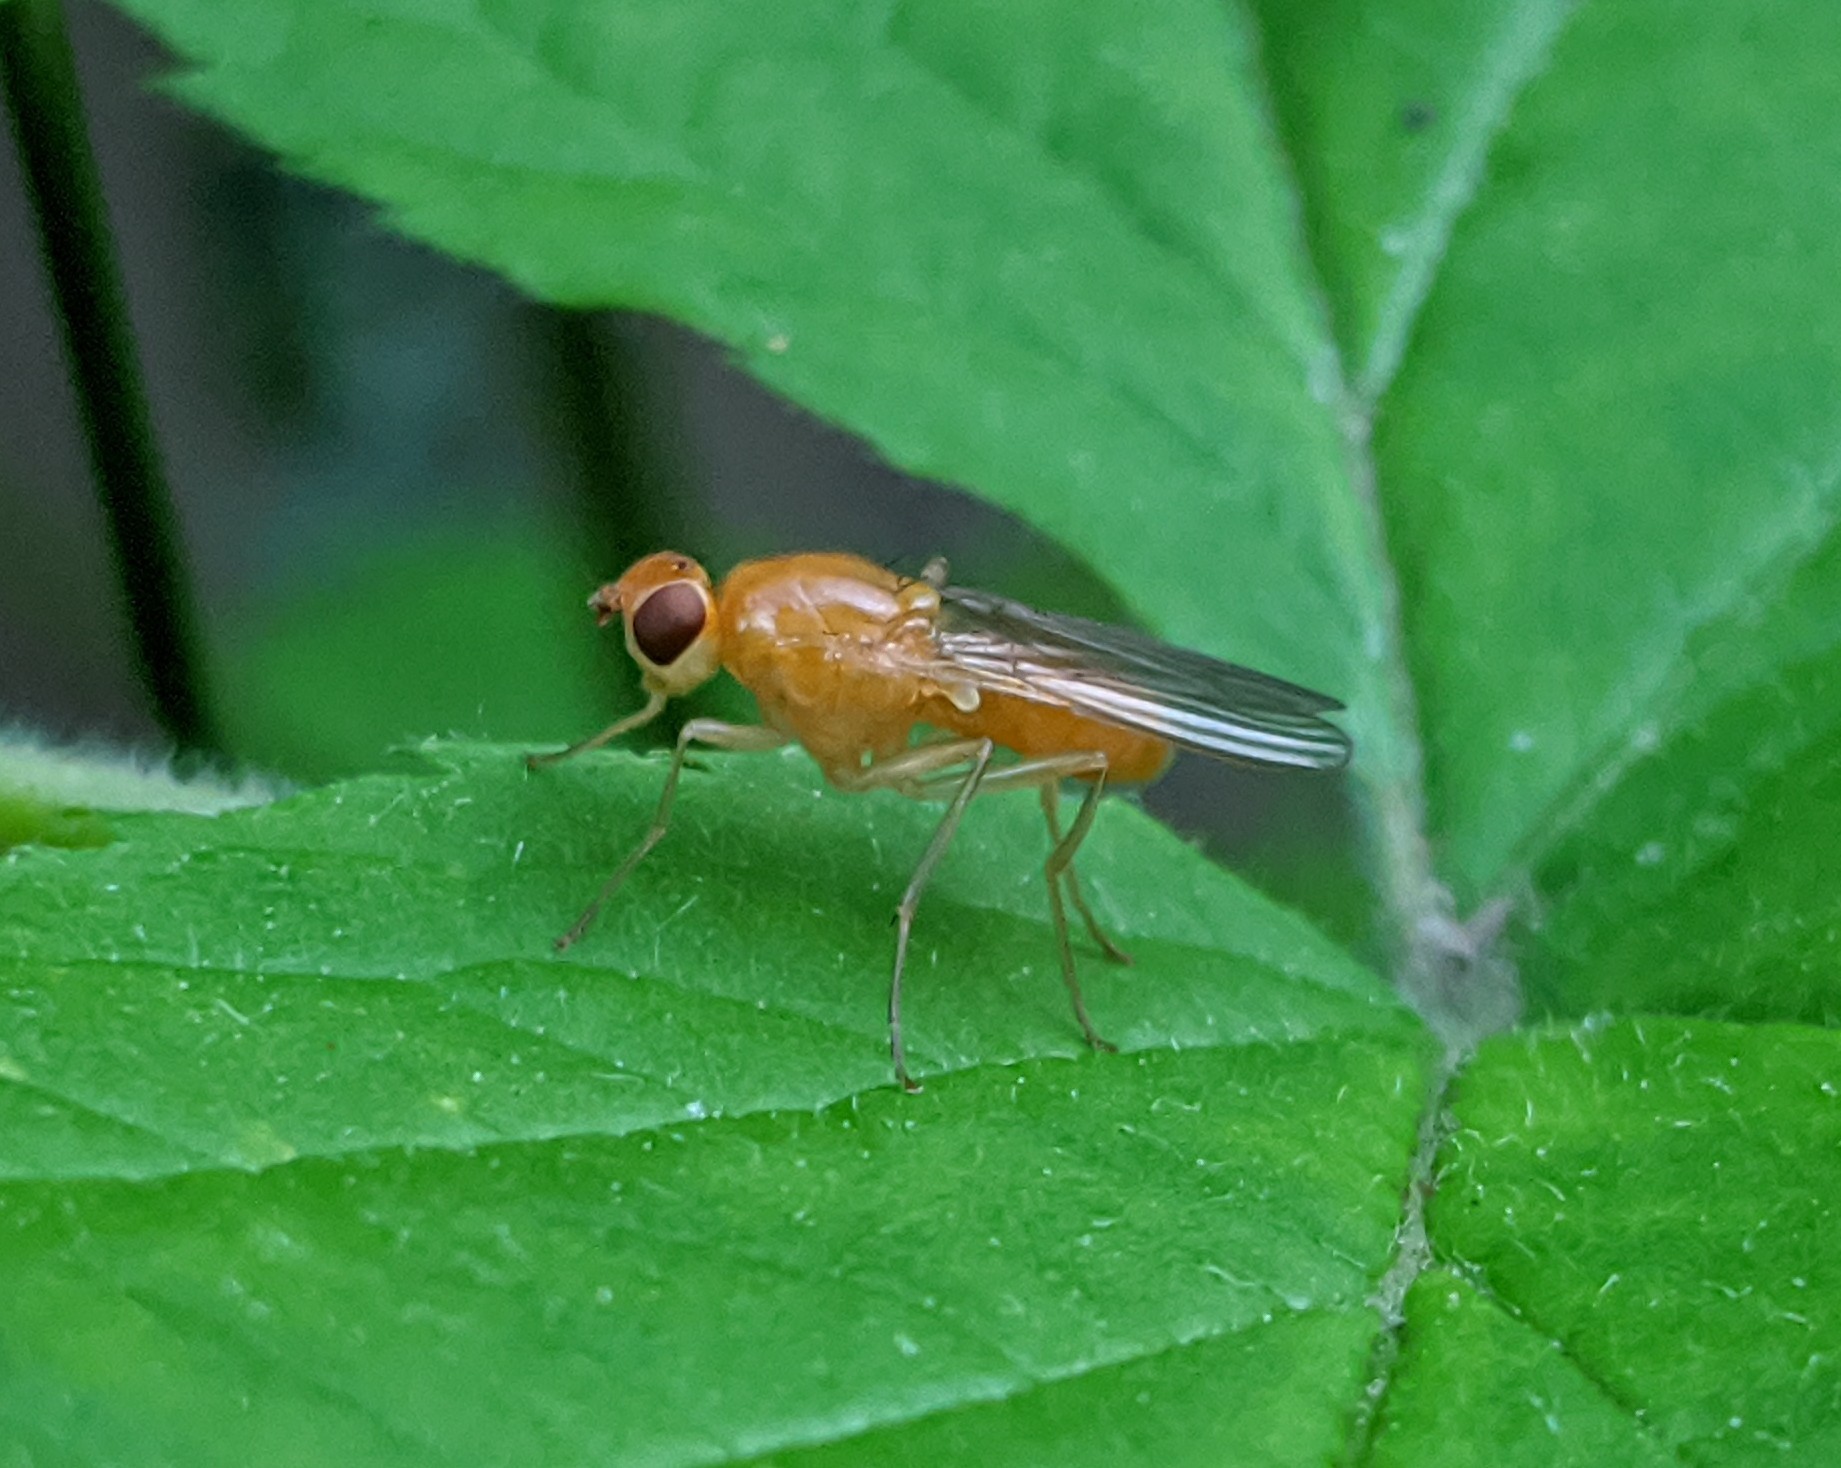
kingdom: Animalia
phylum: Arthropoda
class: Insecta
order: Diptera
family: Psilidae
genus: Psila
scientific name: Psila fimetaria
